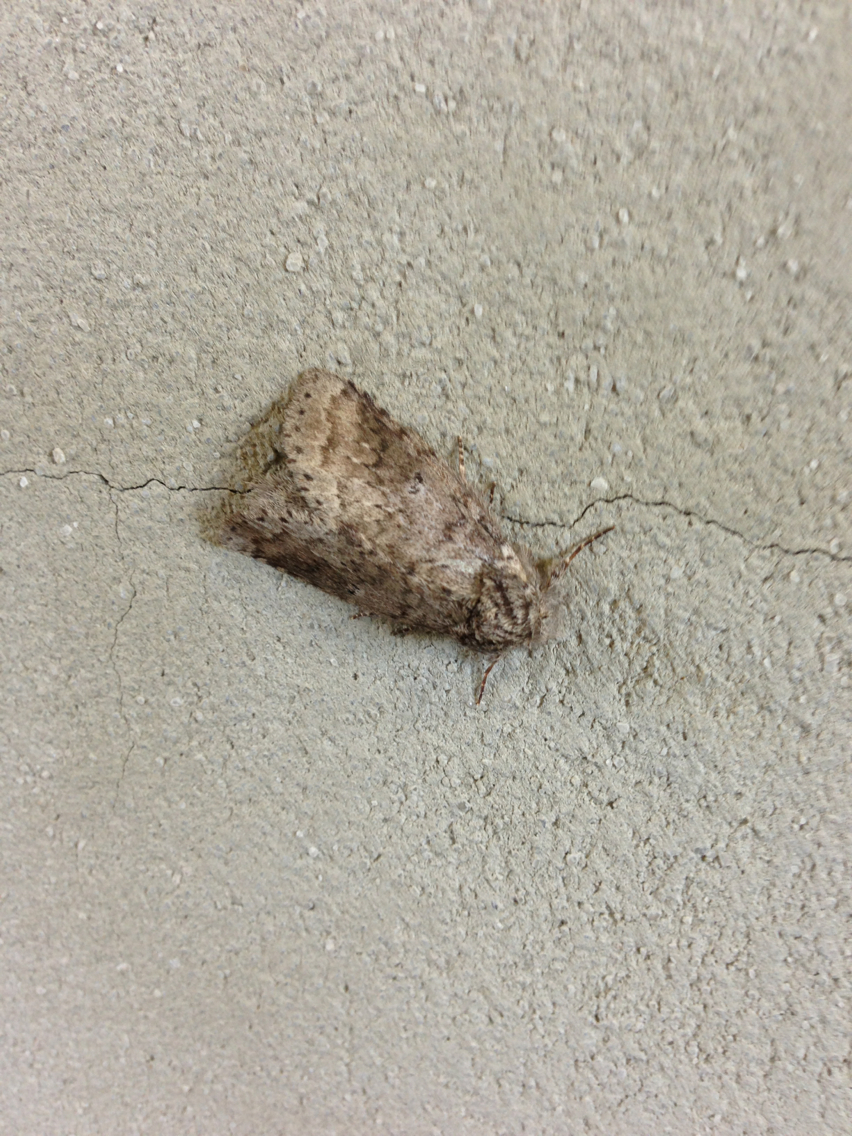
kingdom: Animalia
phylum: Arthropoda
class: Insecta
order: Lepidoptera
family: Notodontidae
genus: Lochmaeus
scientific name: Lochmaeus manteo
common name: Variable oakleaf caterpillar moth
